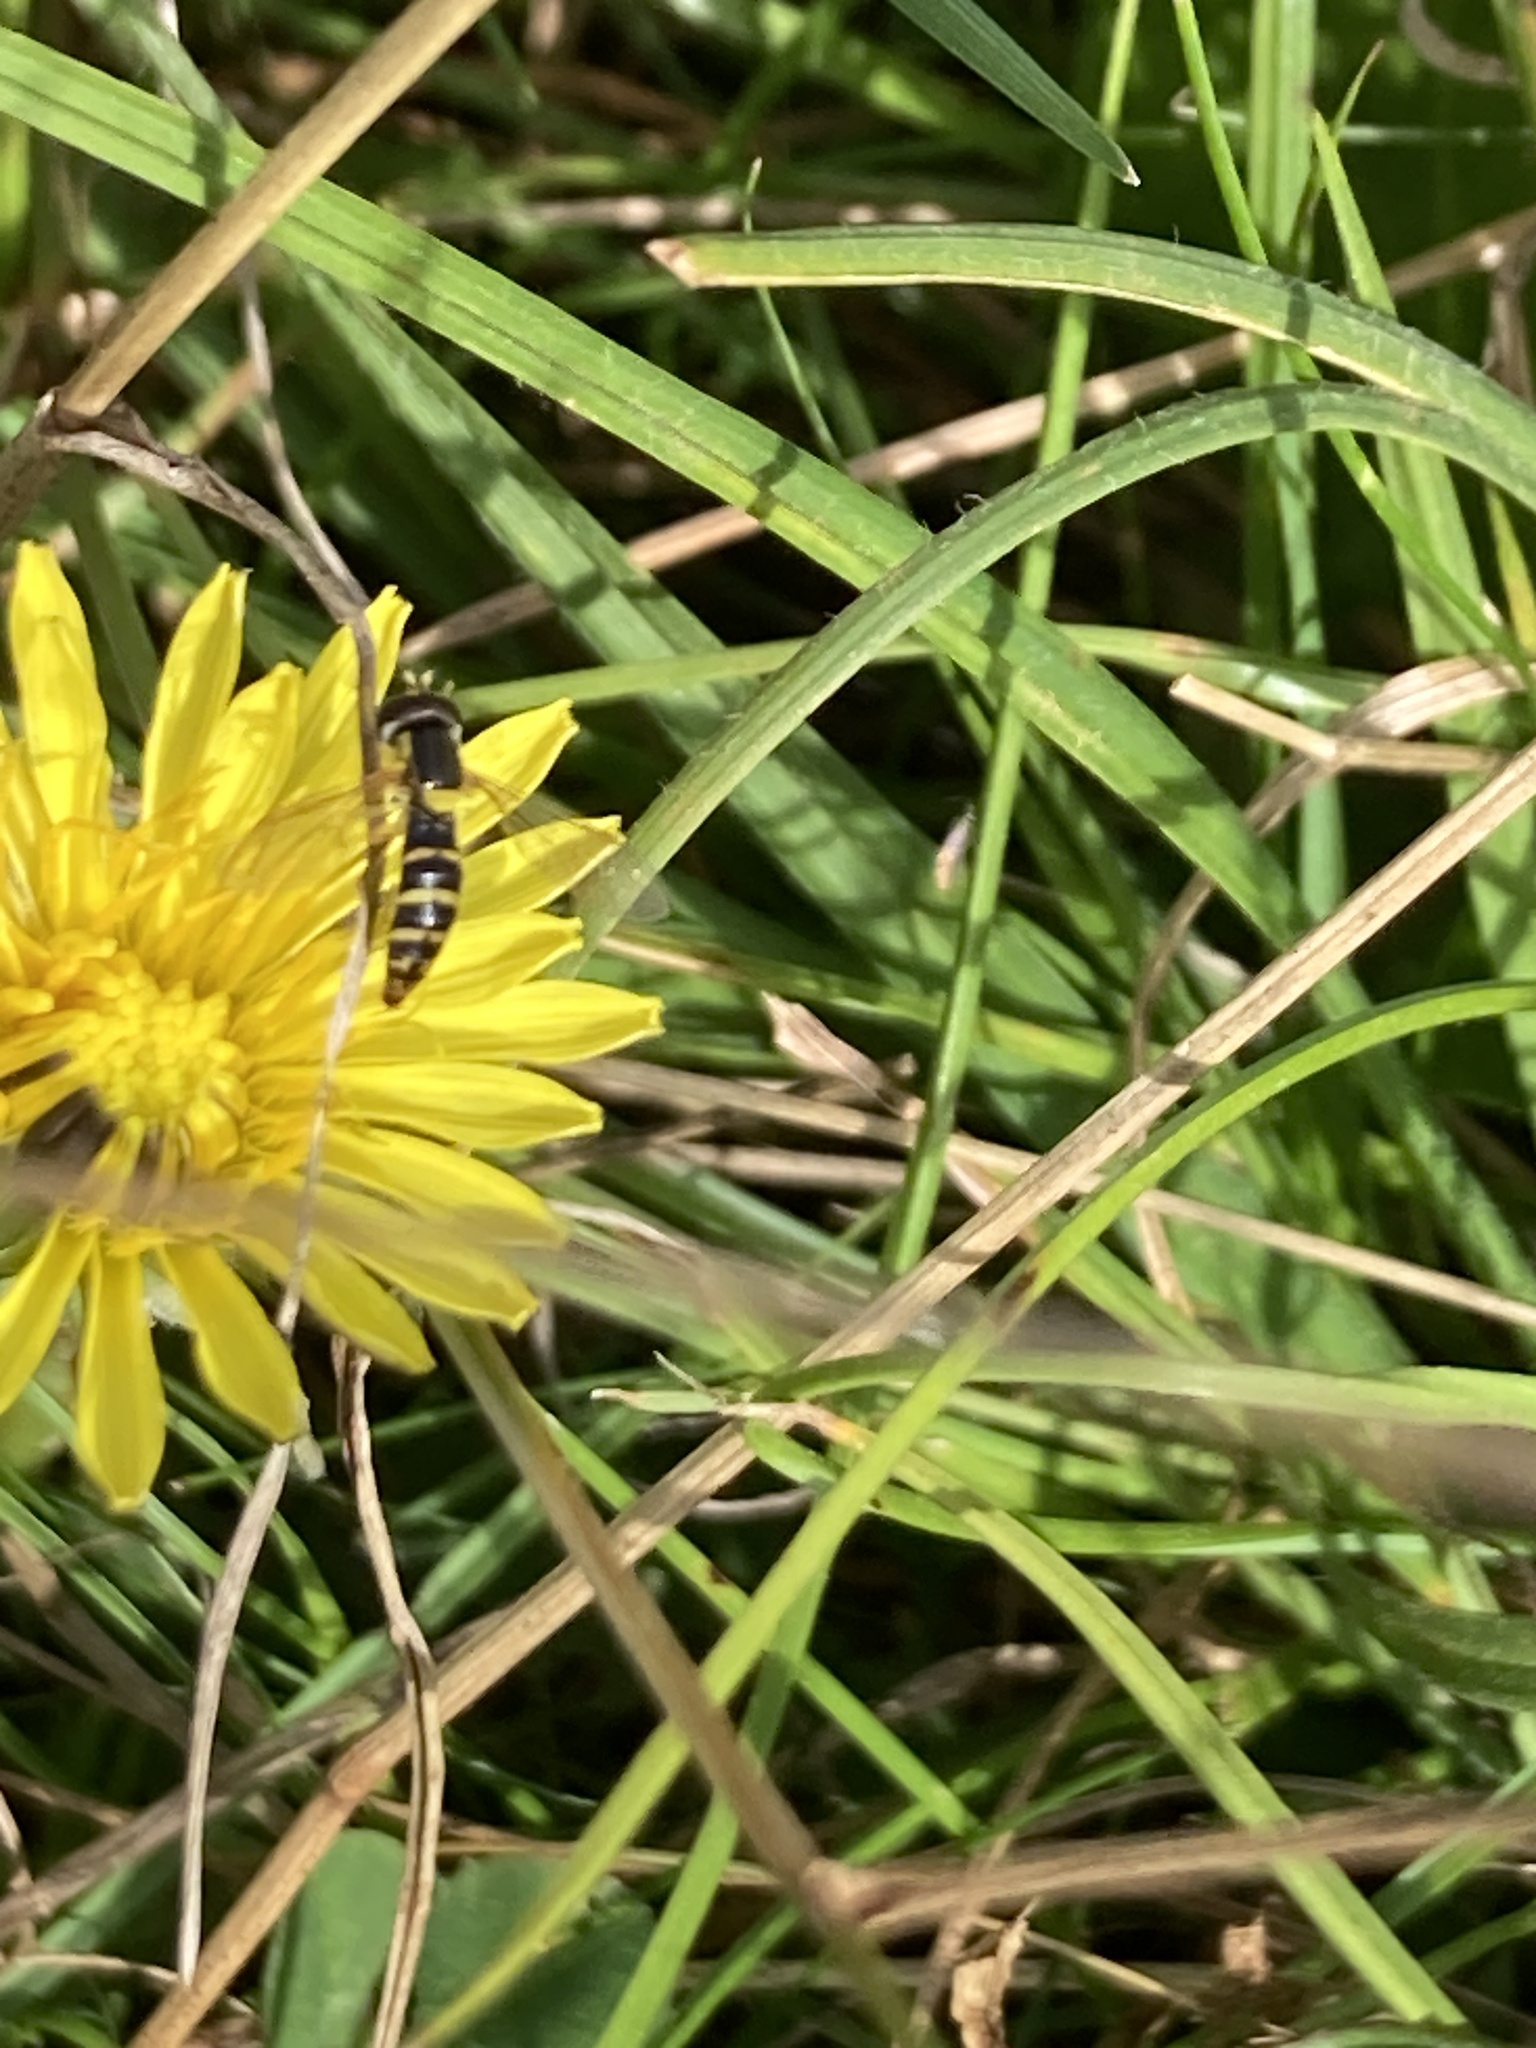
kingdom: Animalia
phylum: Arthropoda
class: Insecta
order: Diptera
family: Syrphidae
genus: Sphaerophoria
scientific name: Sphaerophoria
